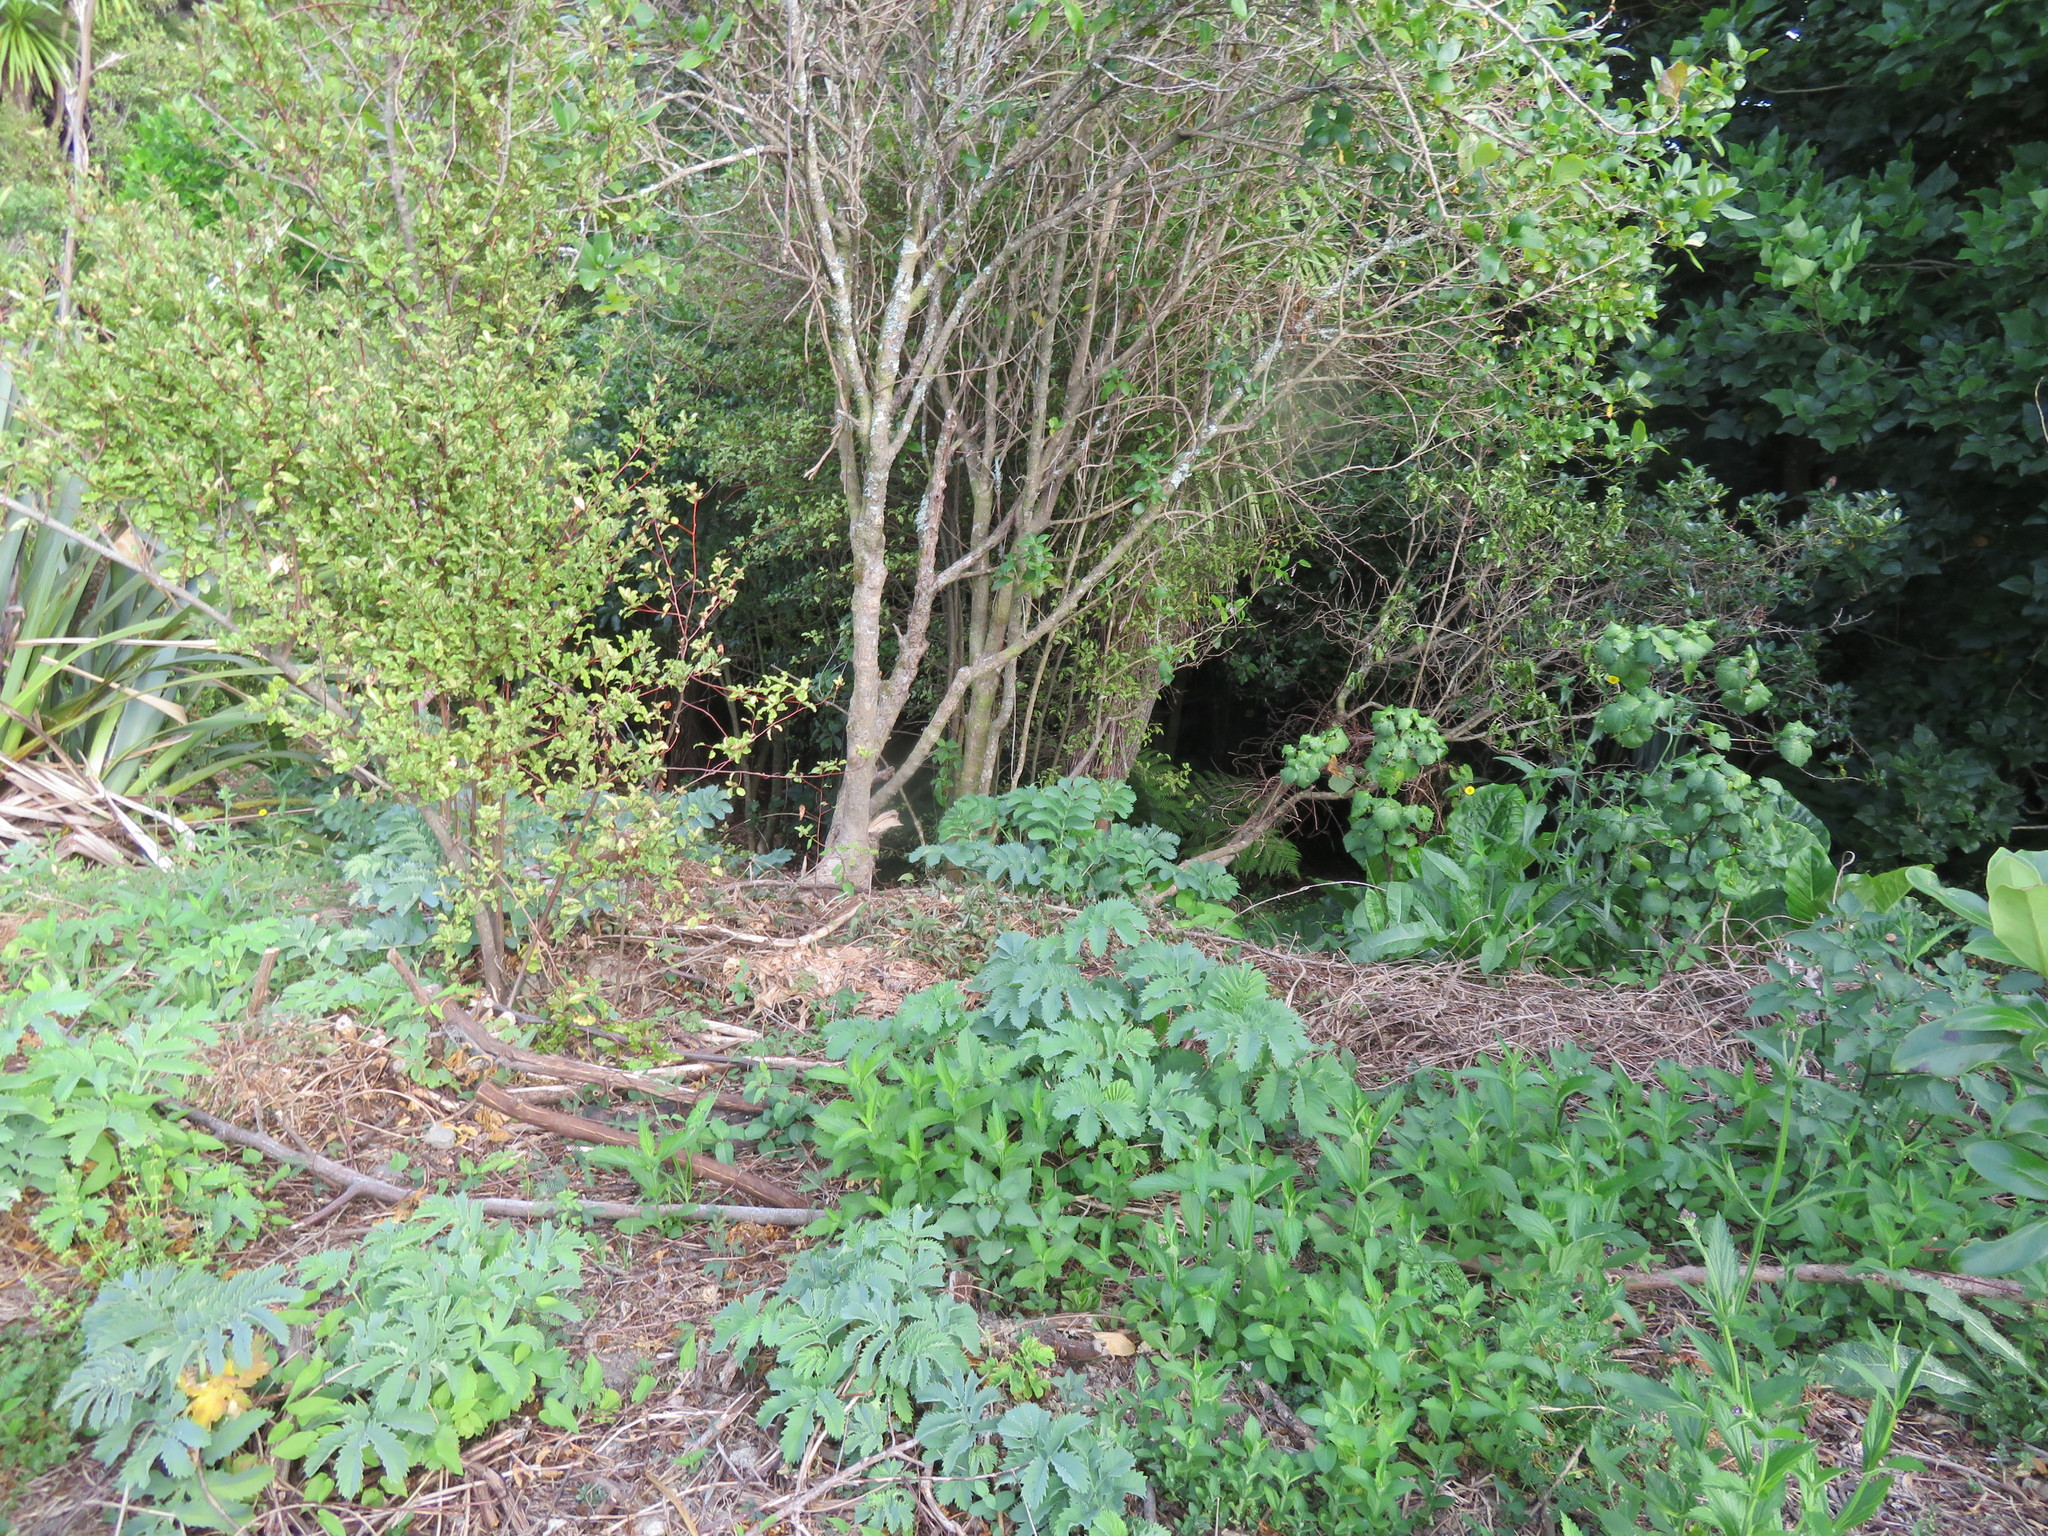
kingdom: Plantae
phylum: Tracheophyta
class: Magnoliopsida
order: Geraniales
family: Melianthaceae
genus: Melianthus
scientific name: Melianthus major
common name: Honey-flower
